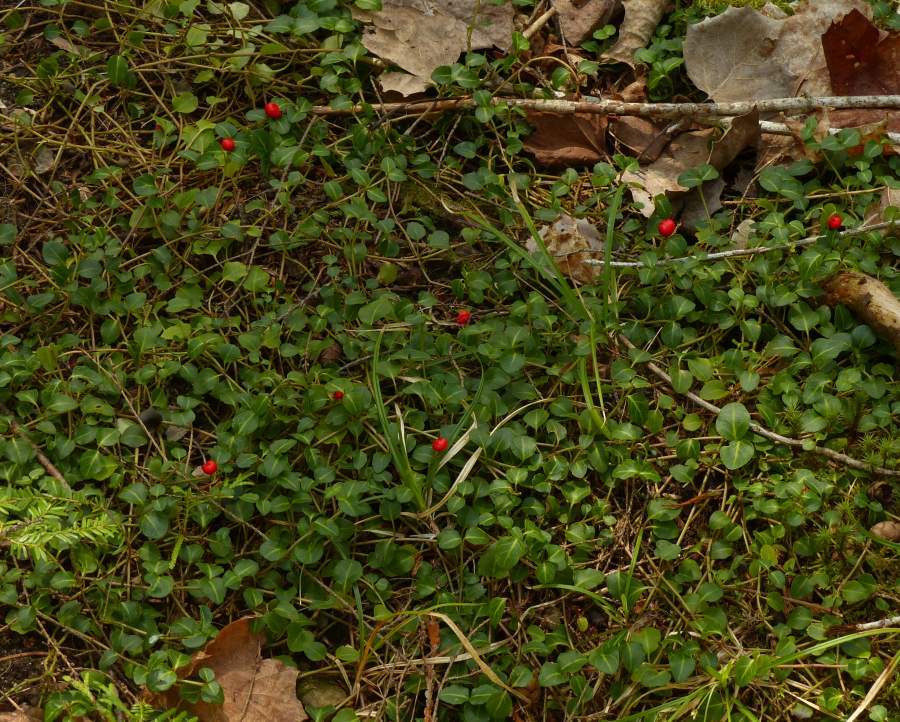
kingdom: Plantae
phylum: Tracheophyta
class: Magnoliopsida
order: Gentianales
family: Rubiaceae
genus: Mitchella
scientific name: Mitchella repens
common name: Partridge-berry
